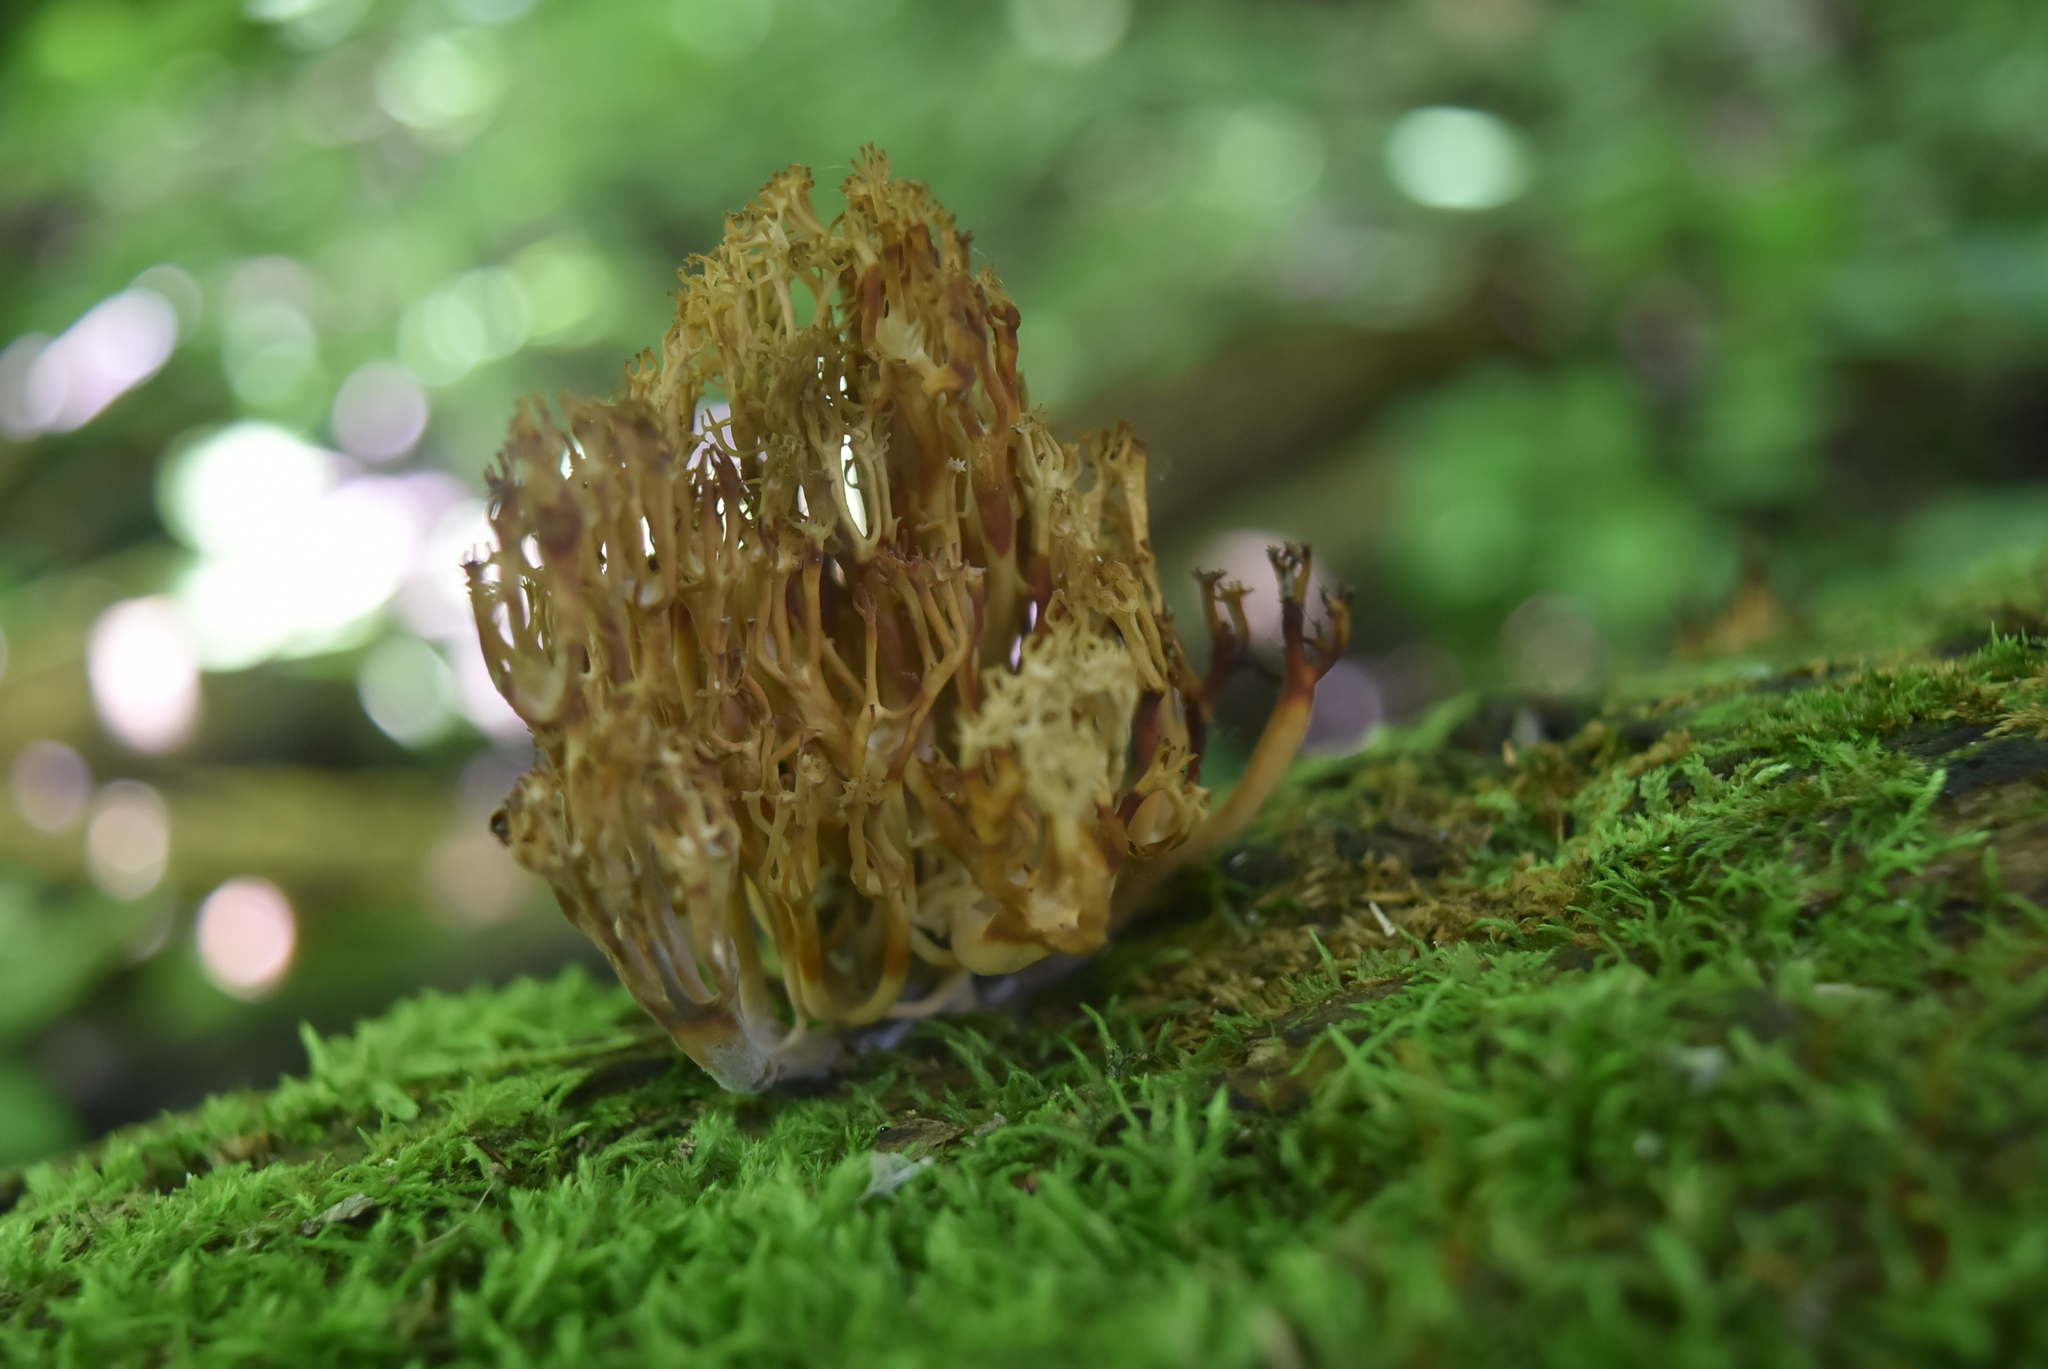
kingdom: Fungi
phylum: Basidiomycota
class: Agaricomycetes
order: Russulales
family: Auriscalpiaceae
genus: Artomyces
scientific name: Artomyces pyxidatus
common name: Crown-tipped coral fungus
